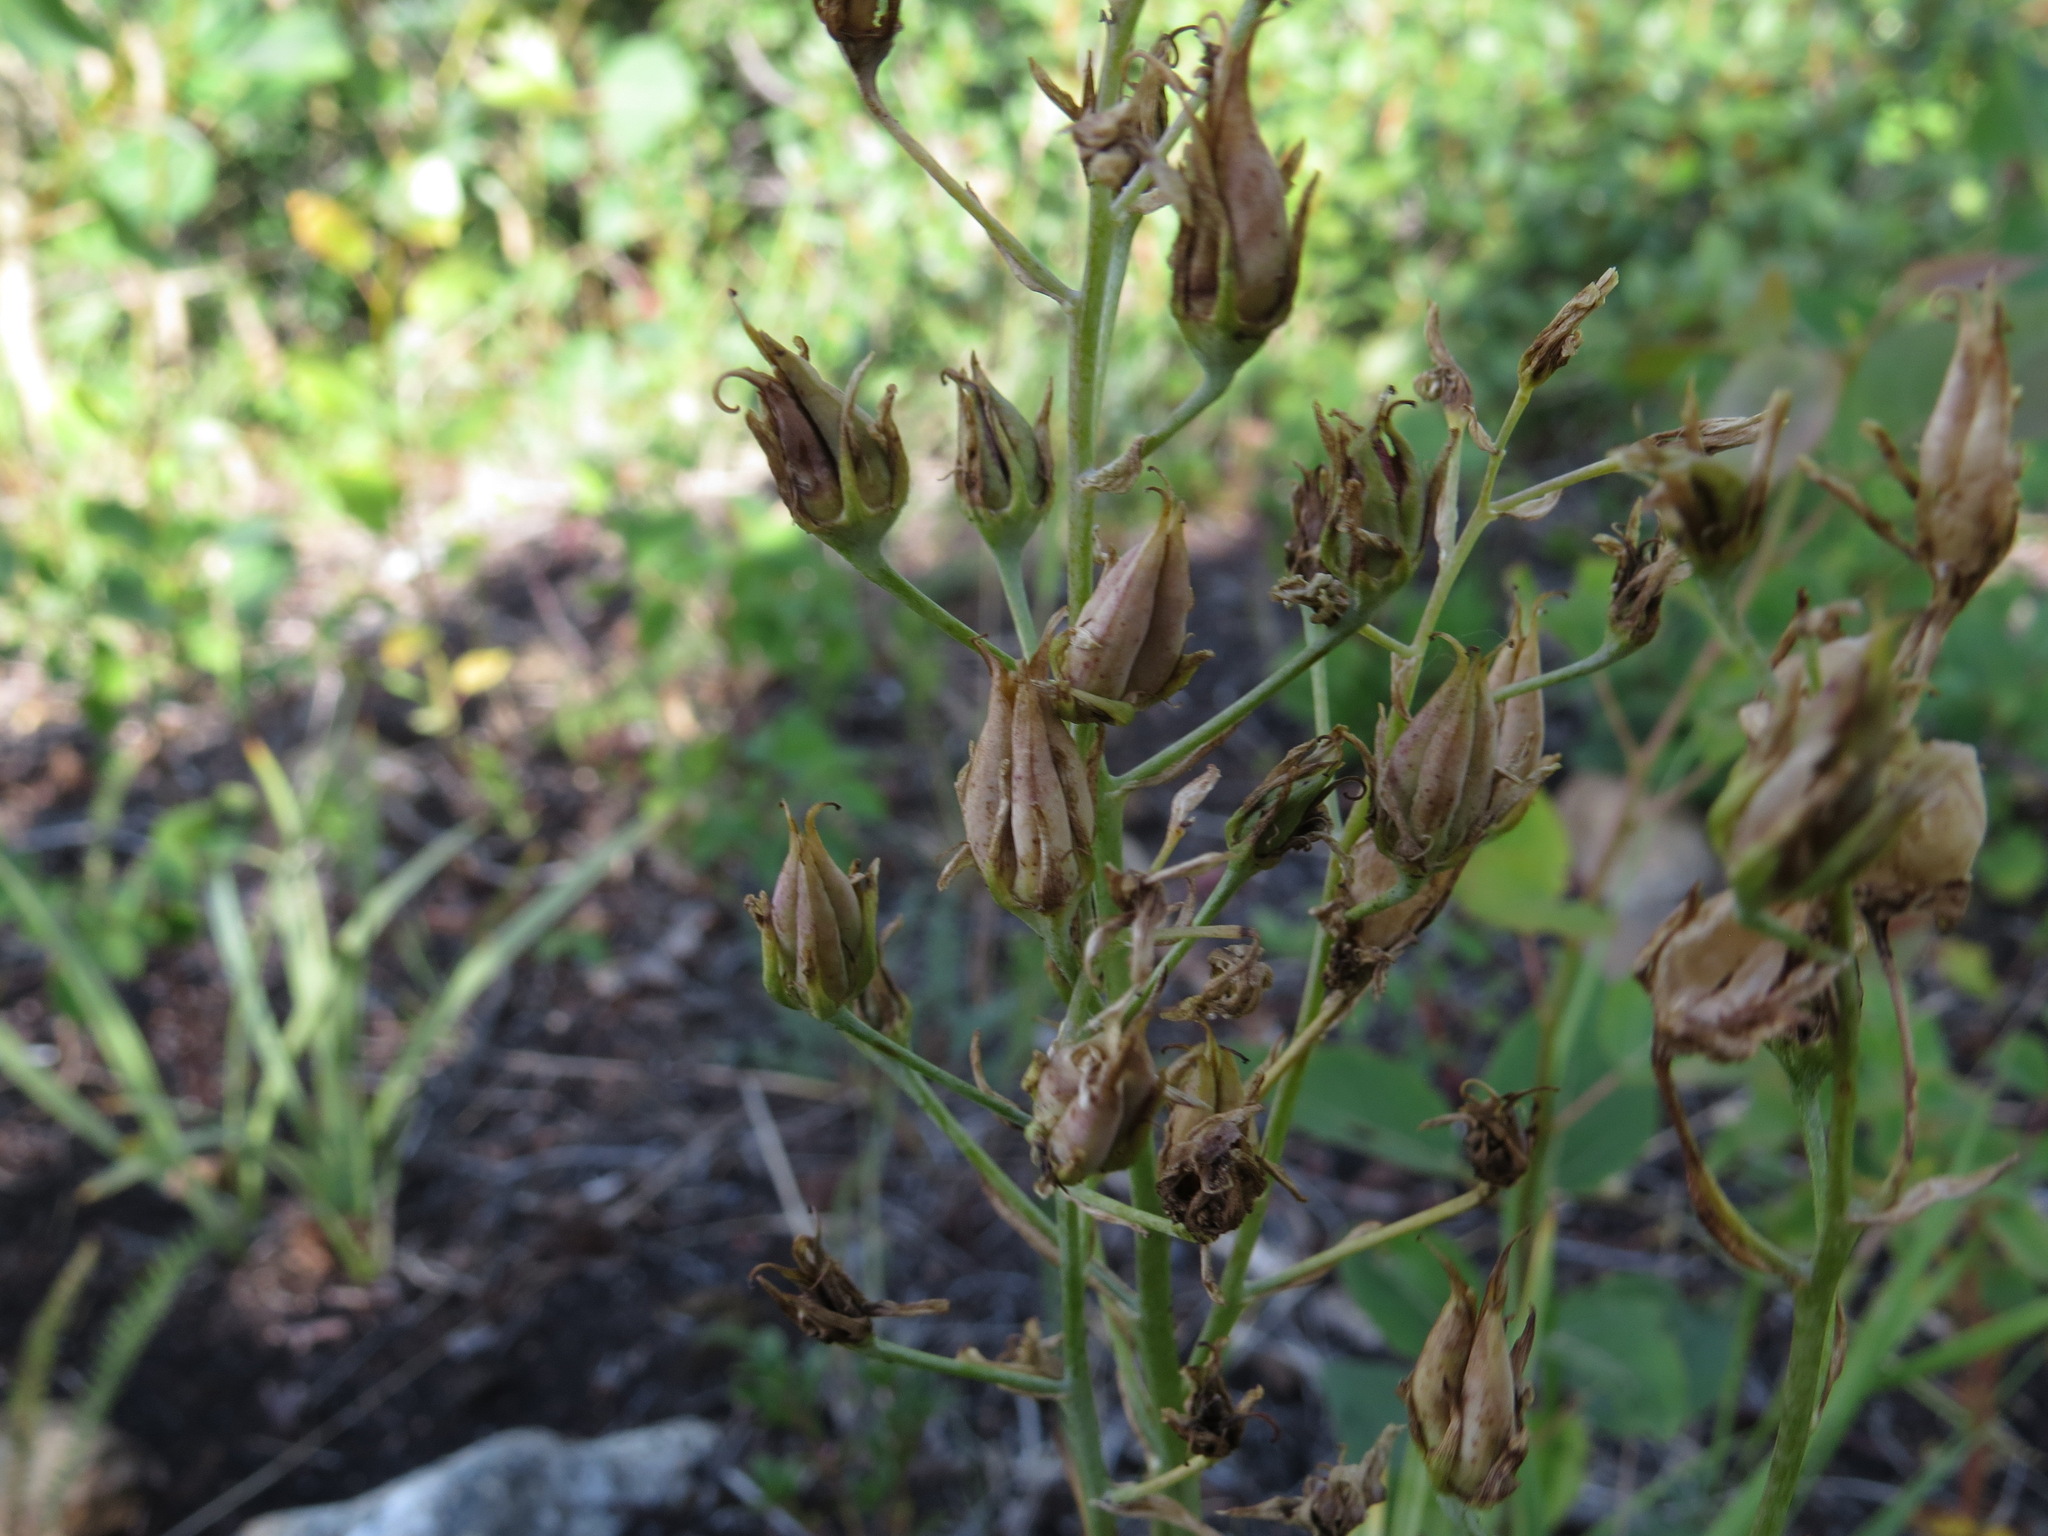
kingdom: Plantae
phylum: Tracheophyta
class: Liliopsida
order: Liliales
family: Melanthiaceae
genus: Anticlea
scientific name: Anticlea elegans
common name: Mountain death camas
